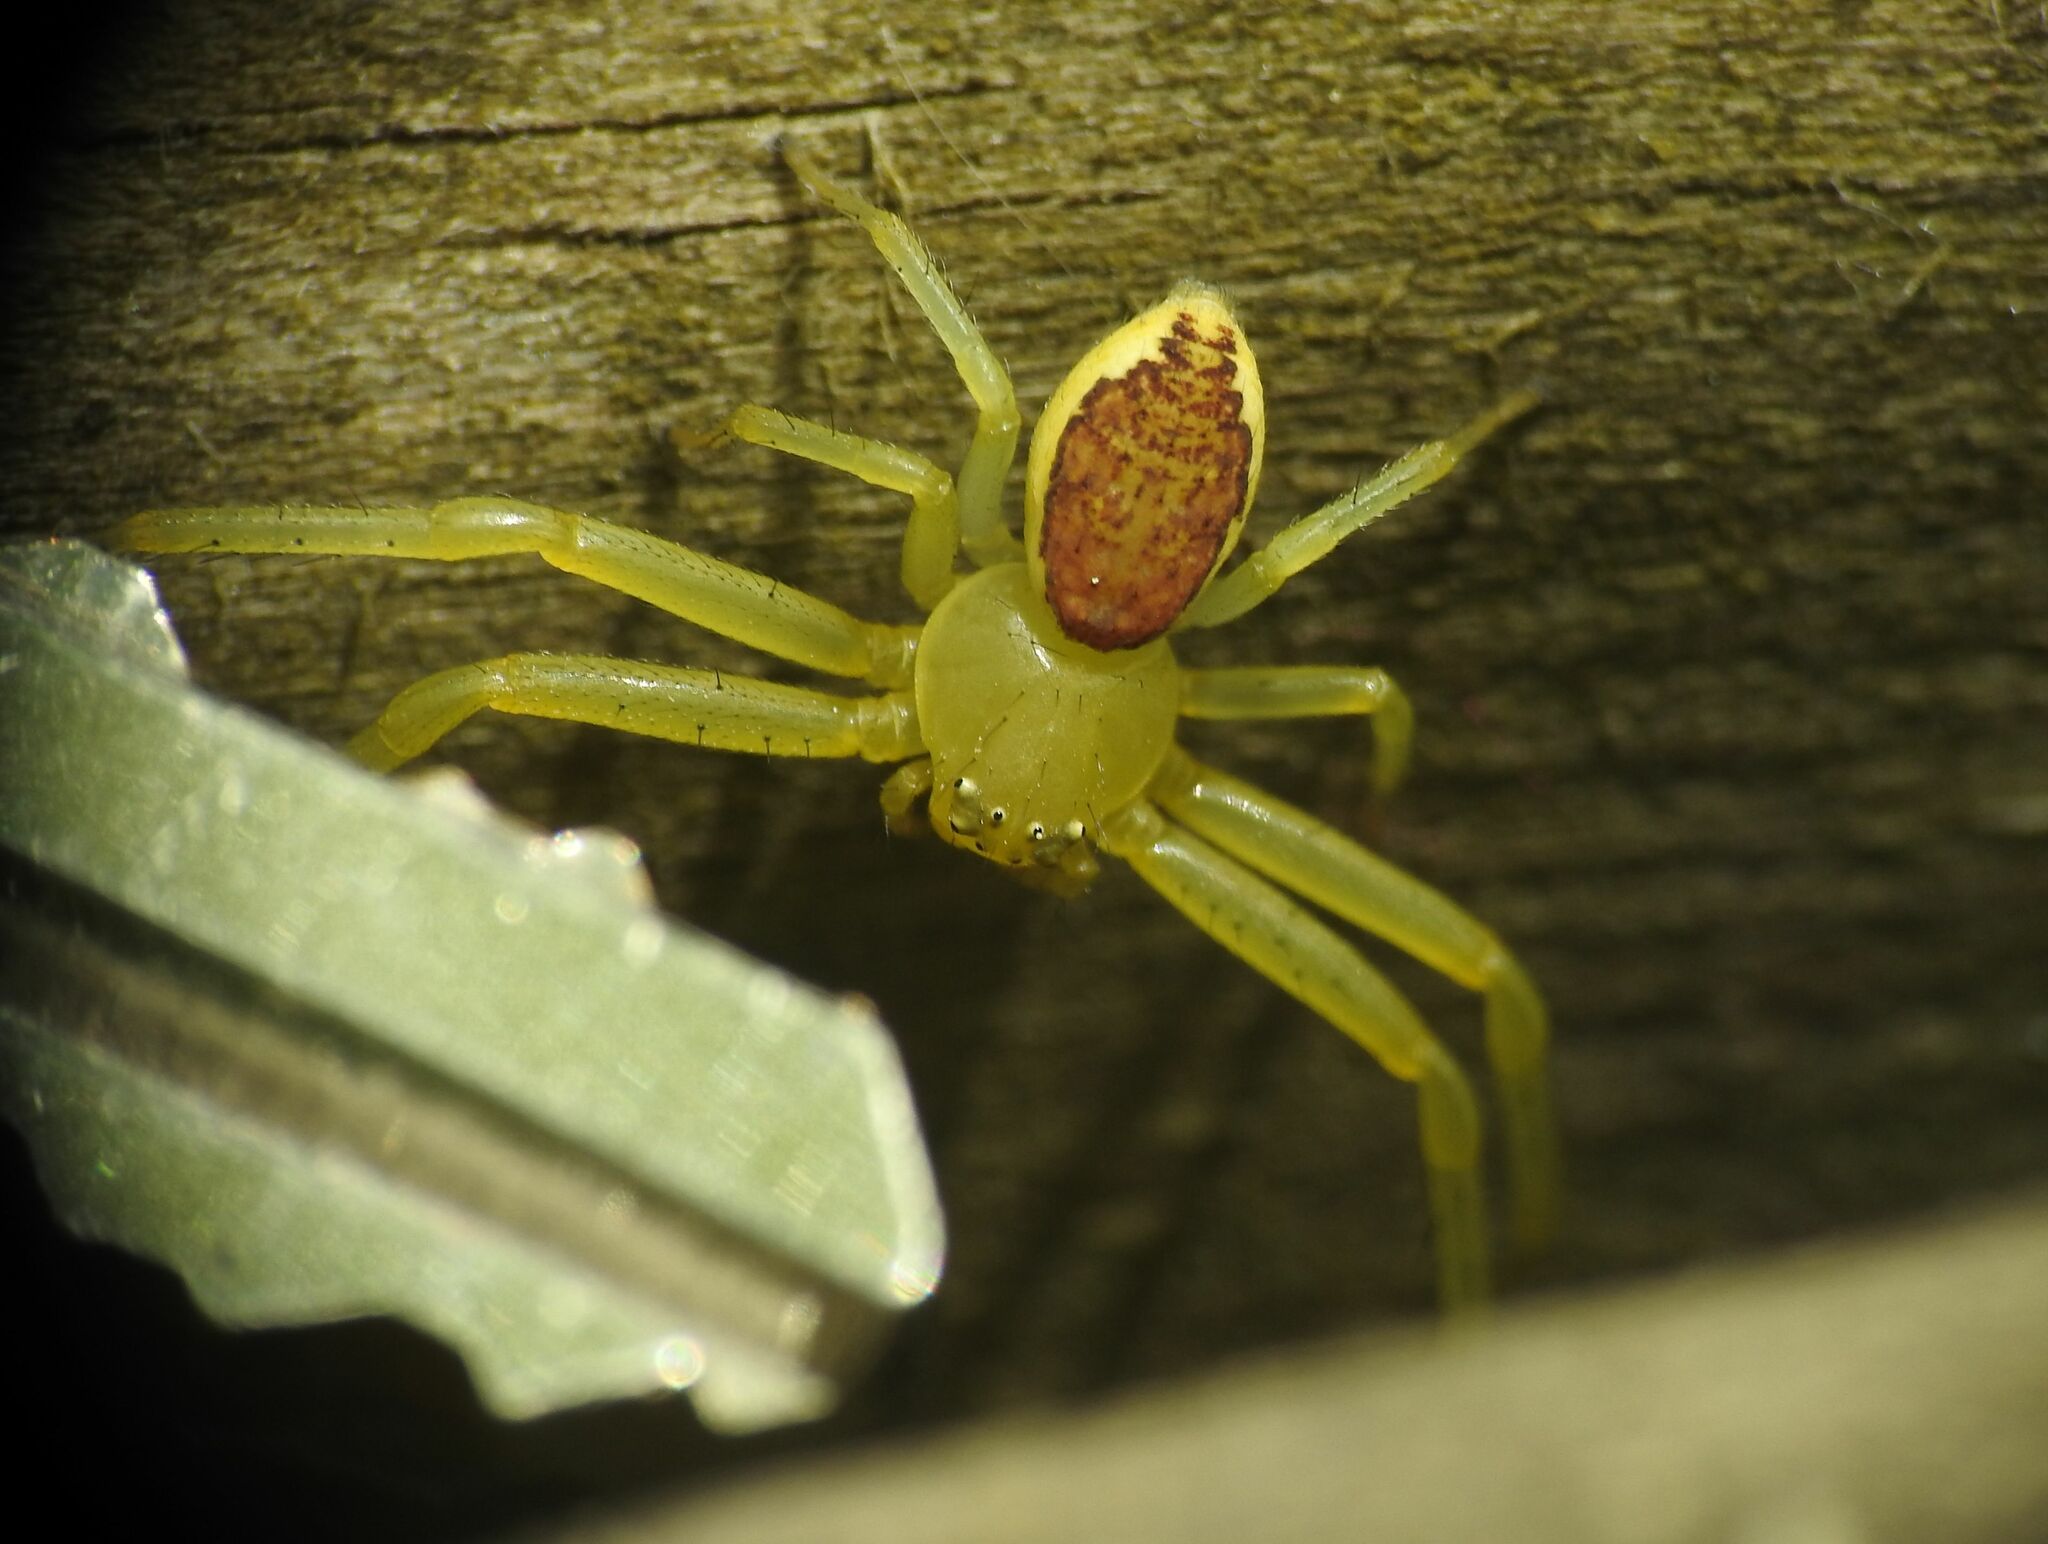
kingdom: Animalia
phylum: Arthropoda
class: Arachnida
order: Araneae
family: Thomisidae
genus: Diaea
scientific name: Diaea dorsata
